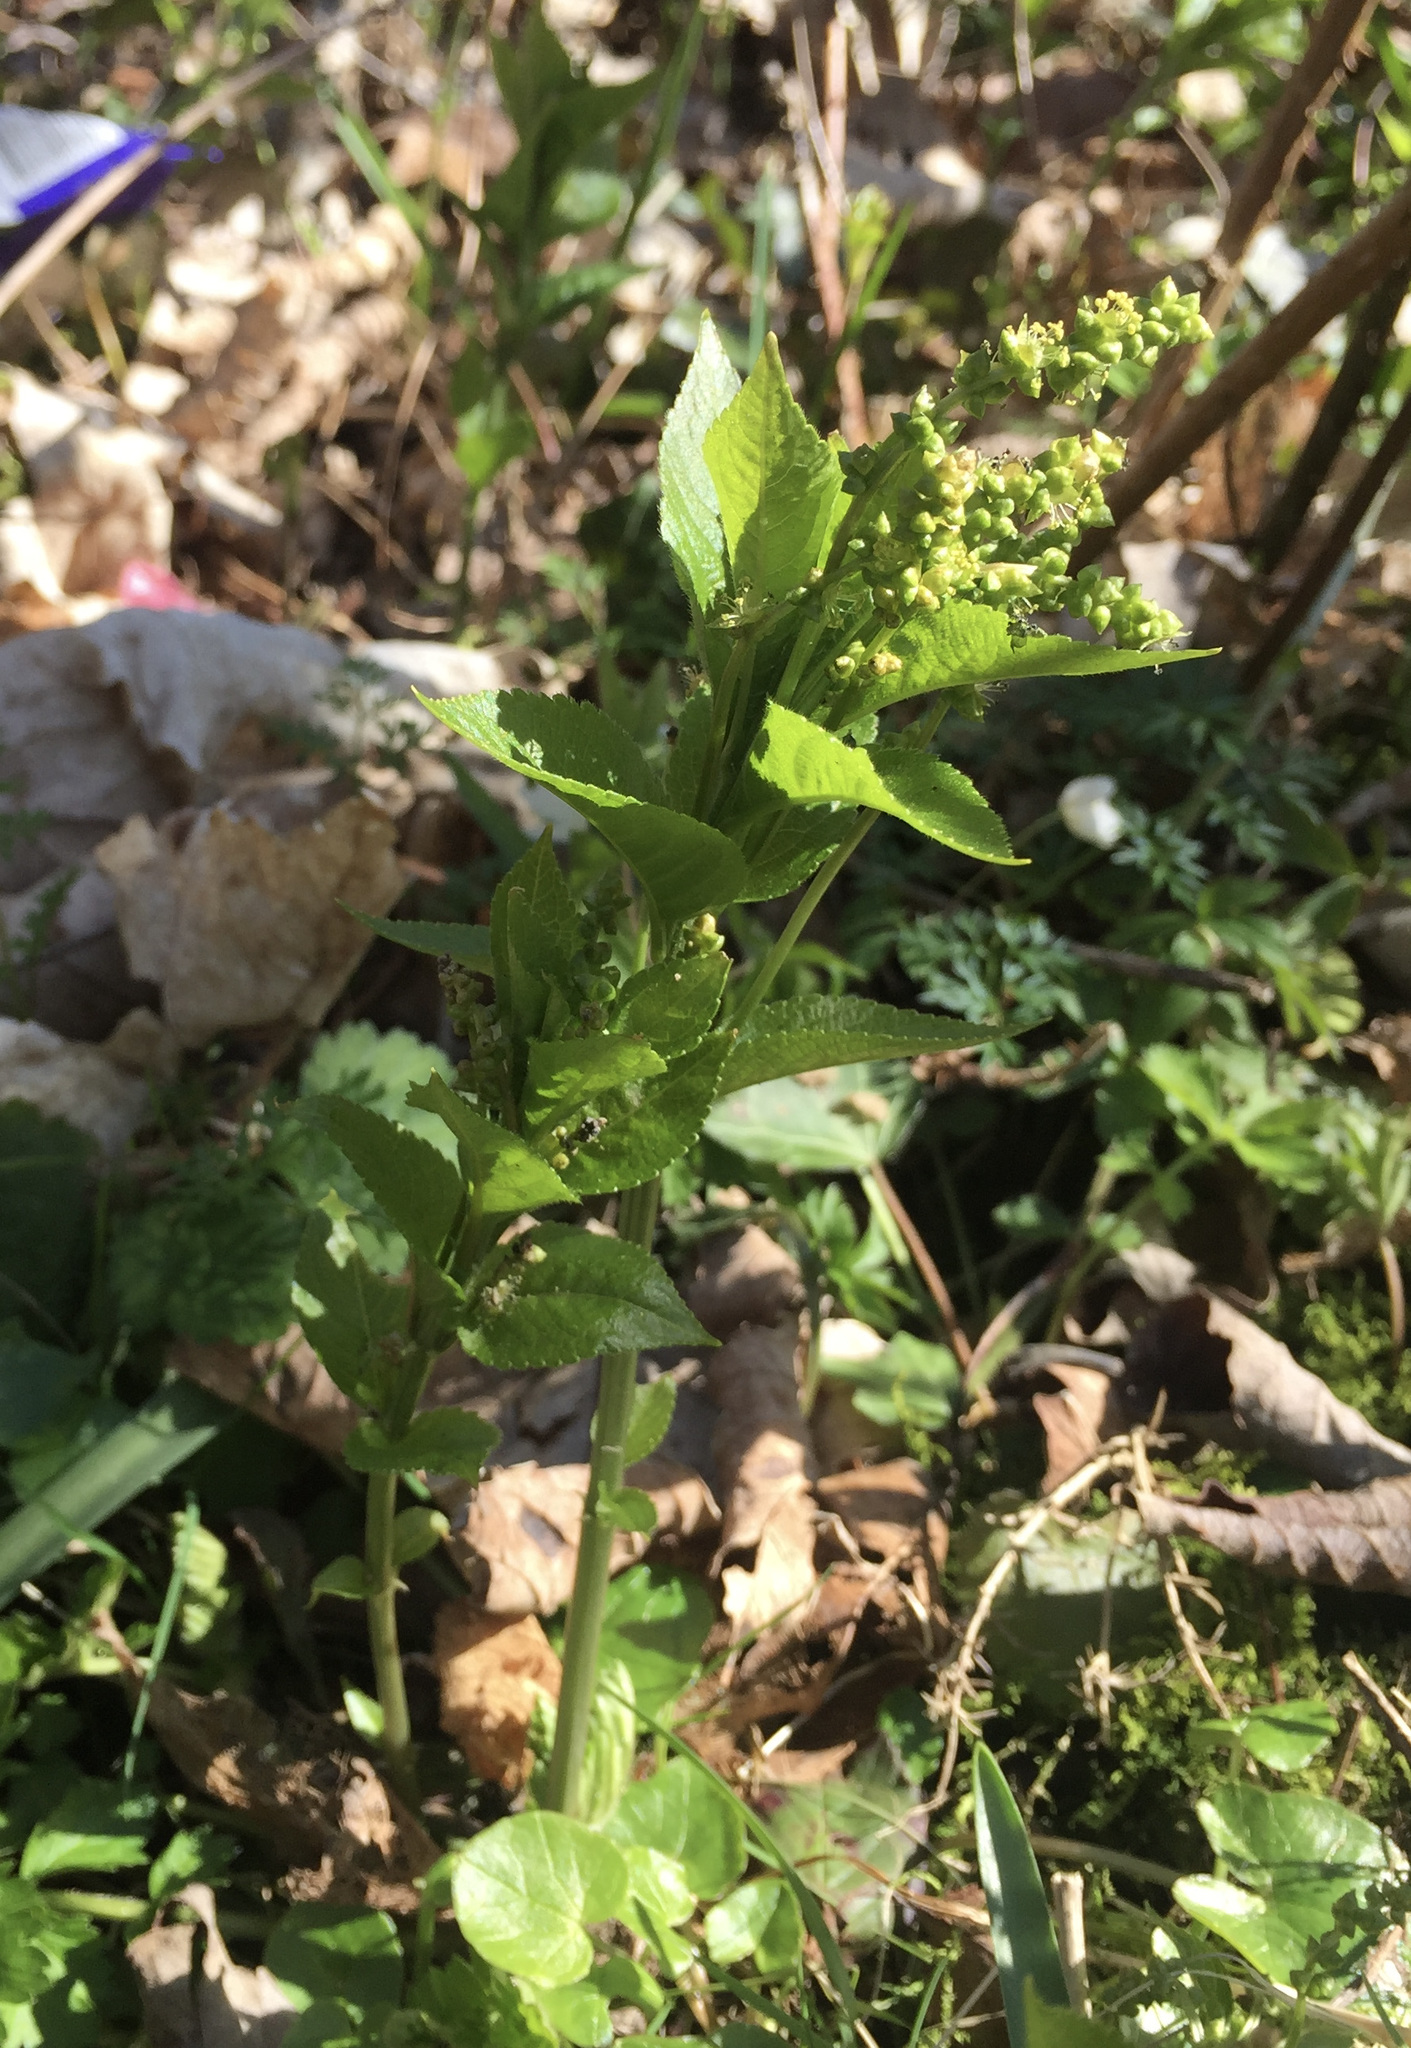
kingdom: Plantae
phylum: Tracheophyta
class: Magnoliopsida
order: Malpighiales
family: Euphorbiaceae
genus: Mercurialis
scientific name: Mercurialis perennis
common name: Dog mercury
